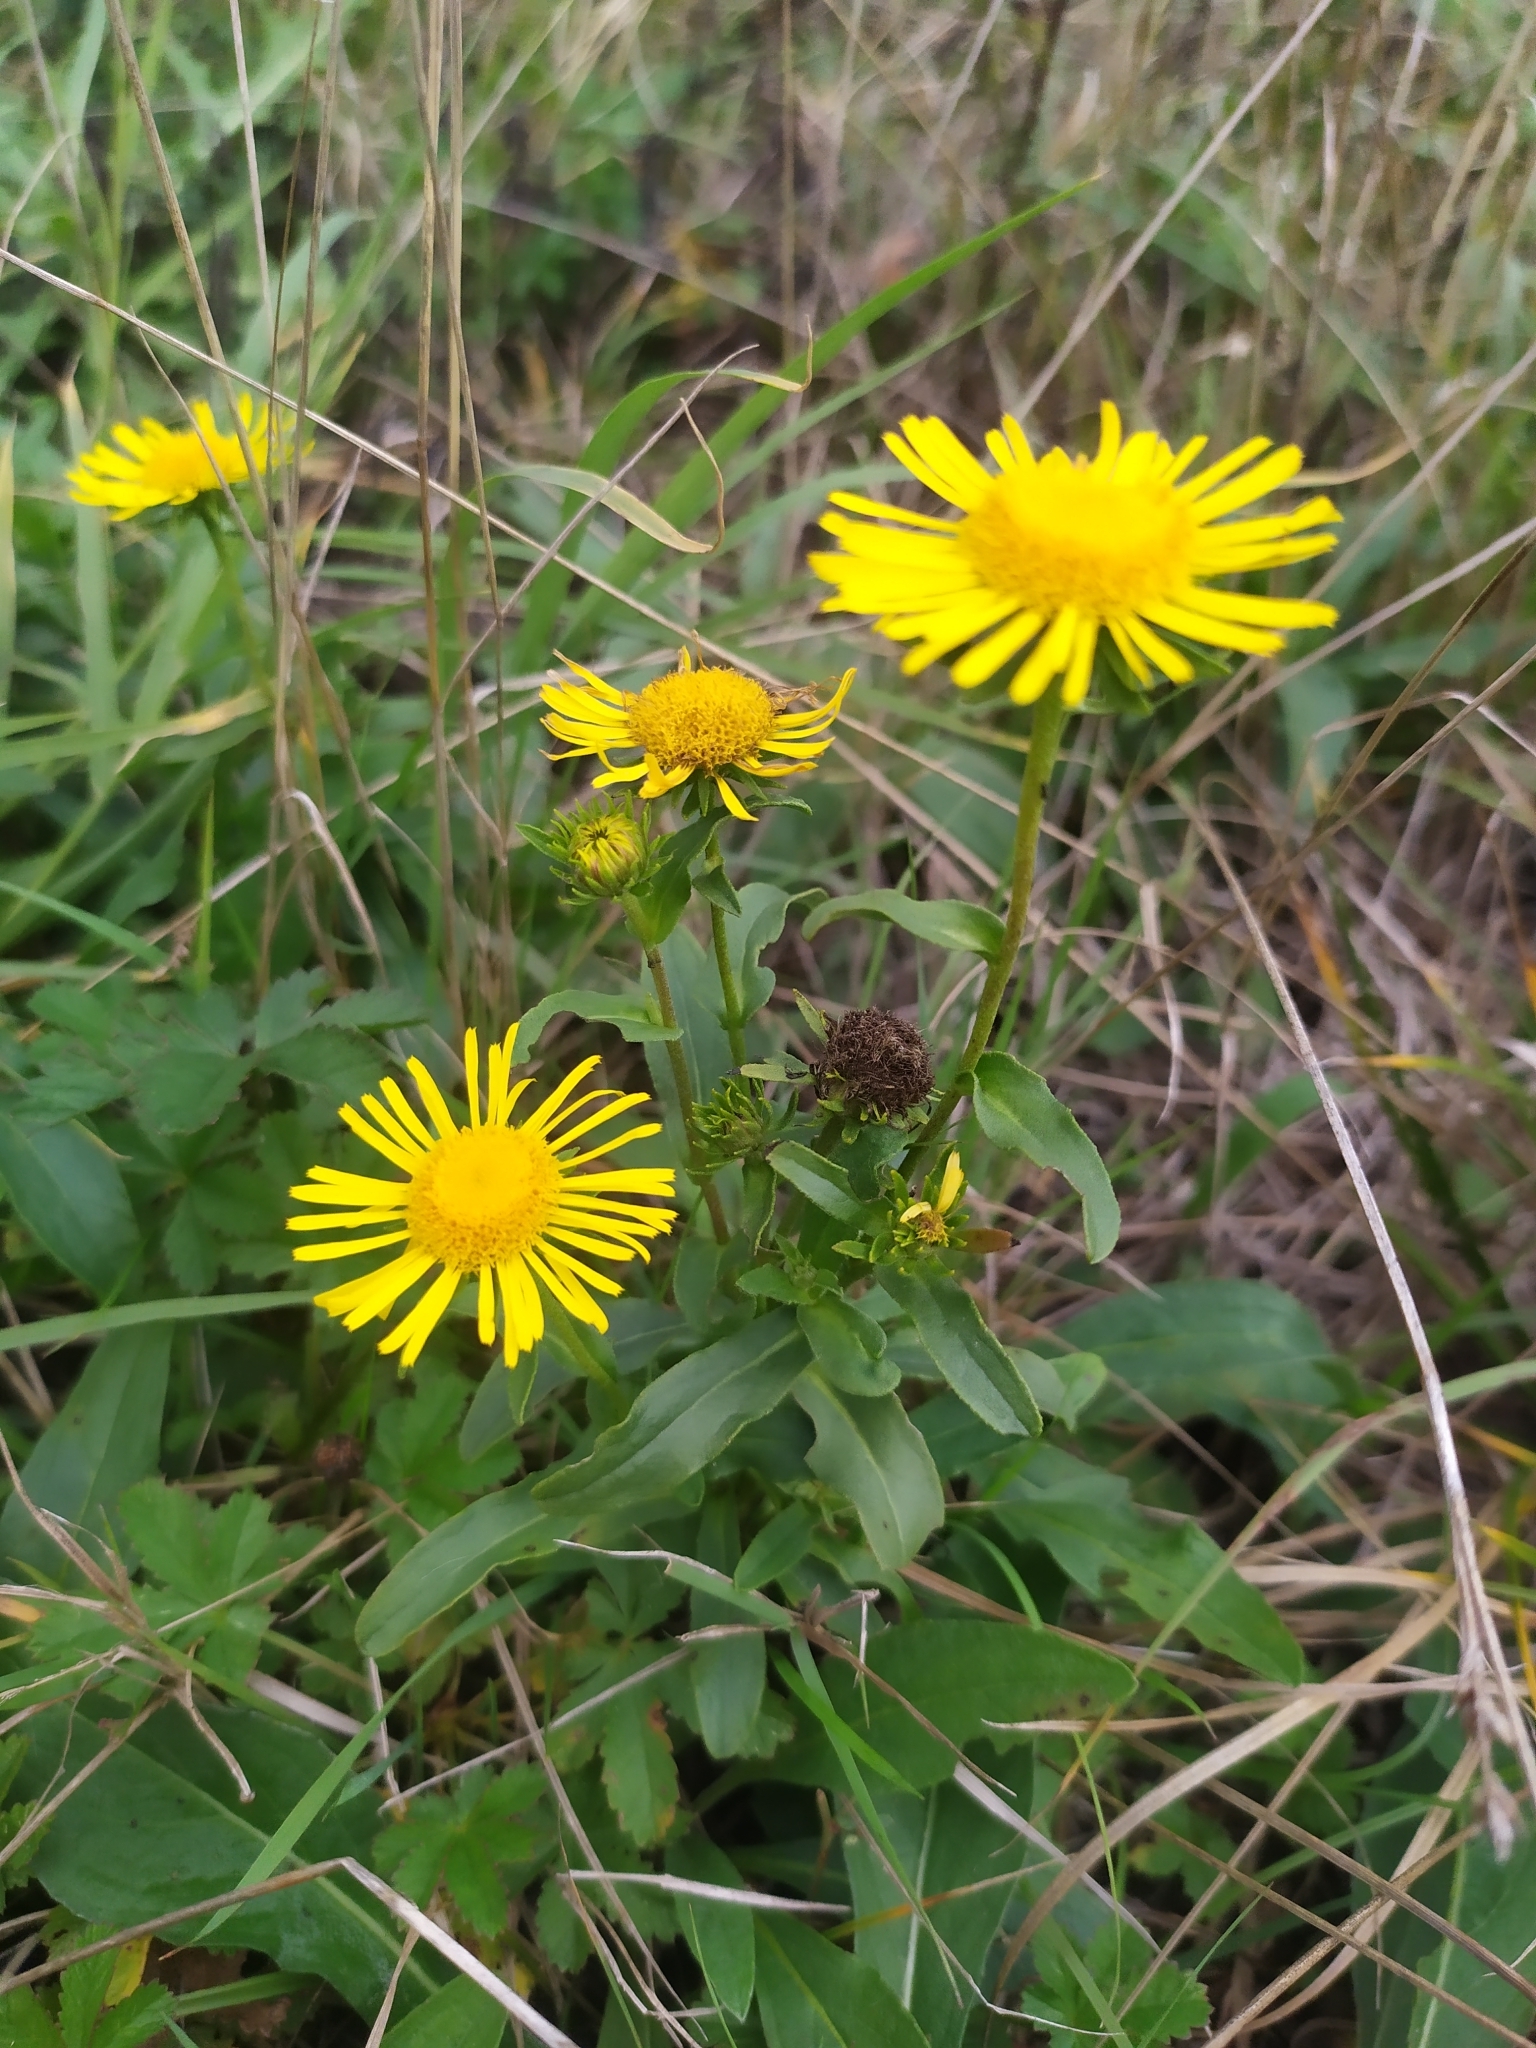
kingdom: Plantae
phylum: Tracheophyta
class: Magnoliopsida
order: Asterales
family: Asteraceae
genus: Pentanema
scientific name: Pentanema britannicum
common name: British elecampane
